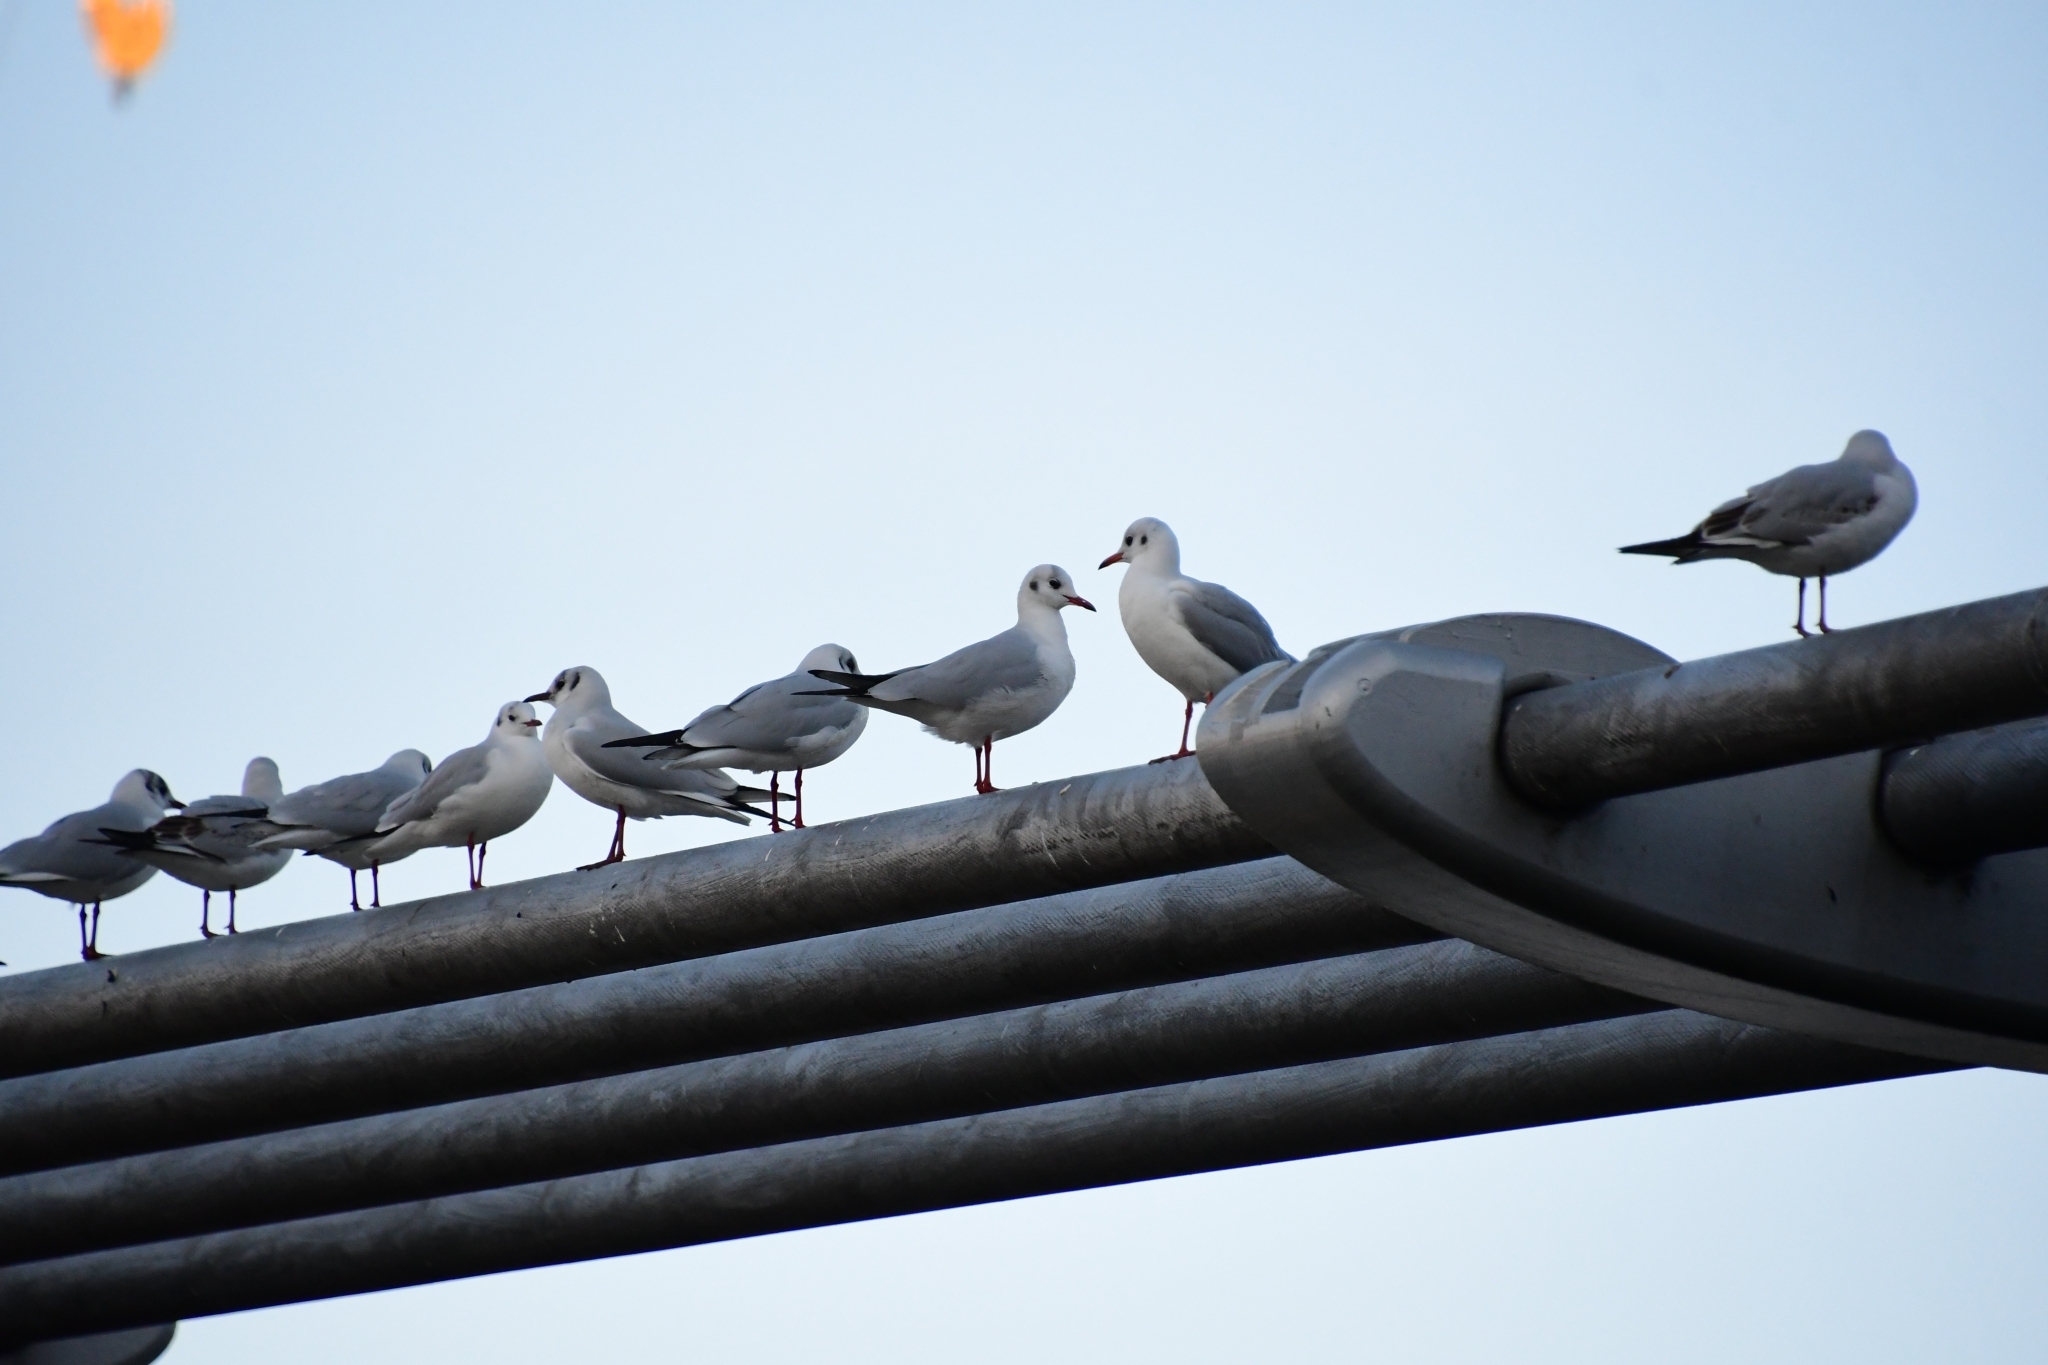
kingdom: Animalia
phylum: Chordata
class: Aves
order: Charadriiformes
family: Laridae
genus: Chroicocephalus
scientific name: Chroicocephalus ridibundus
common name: Black-headed gull
